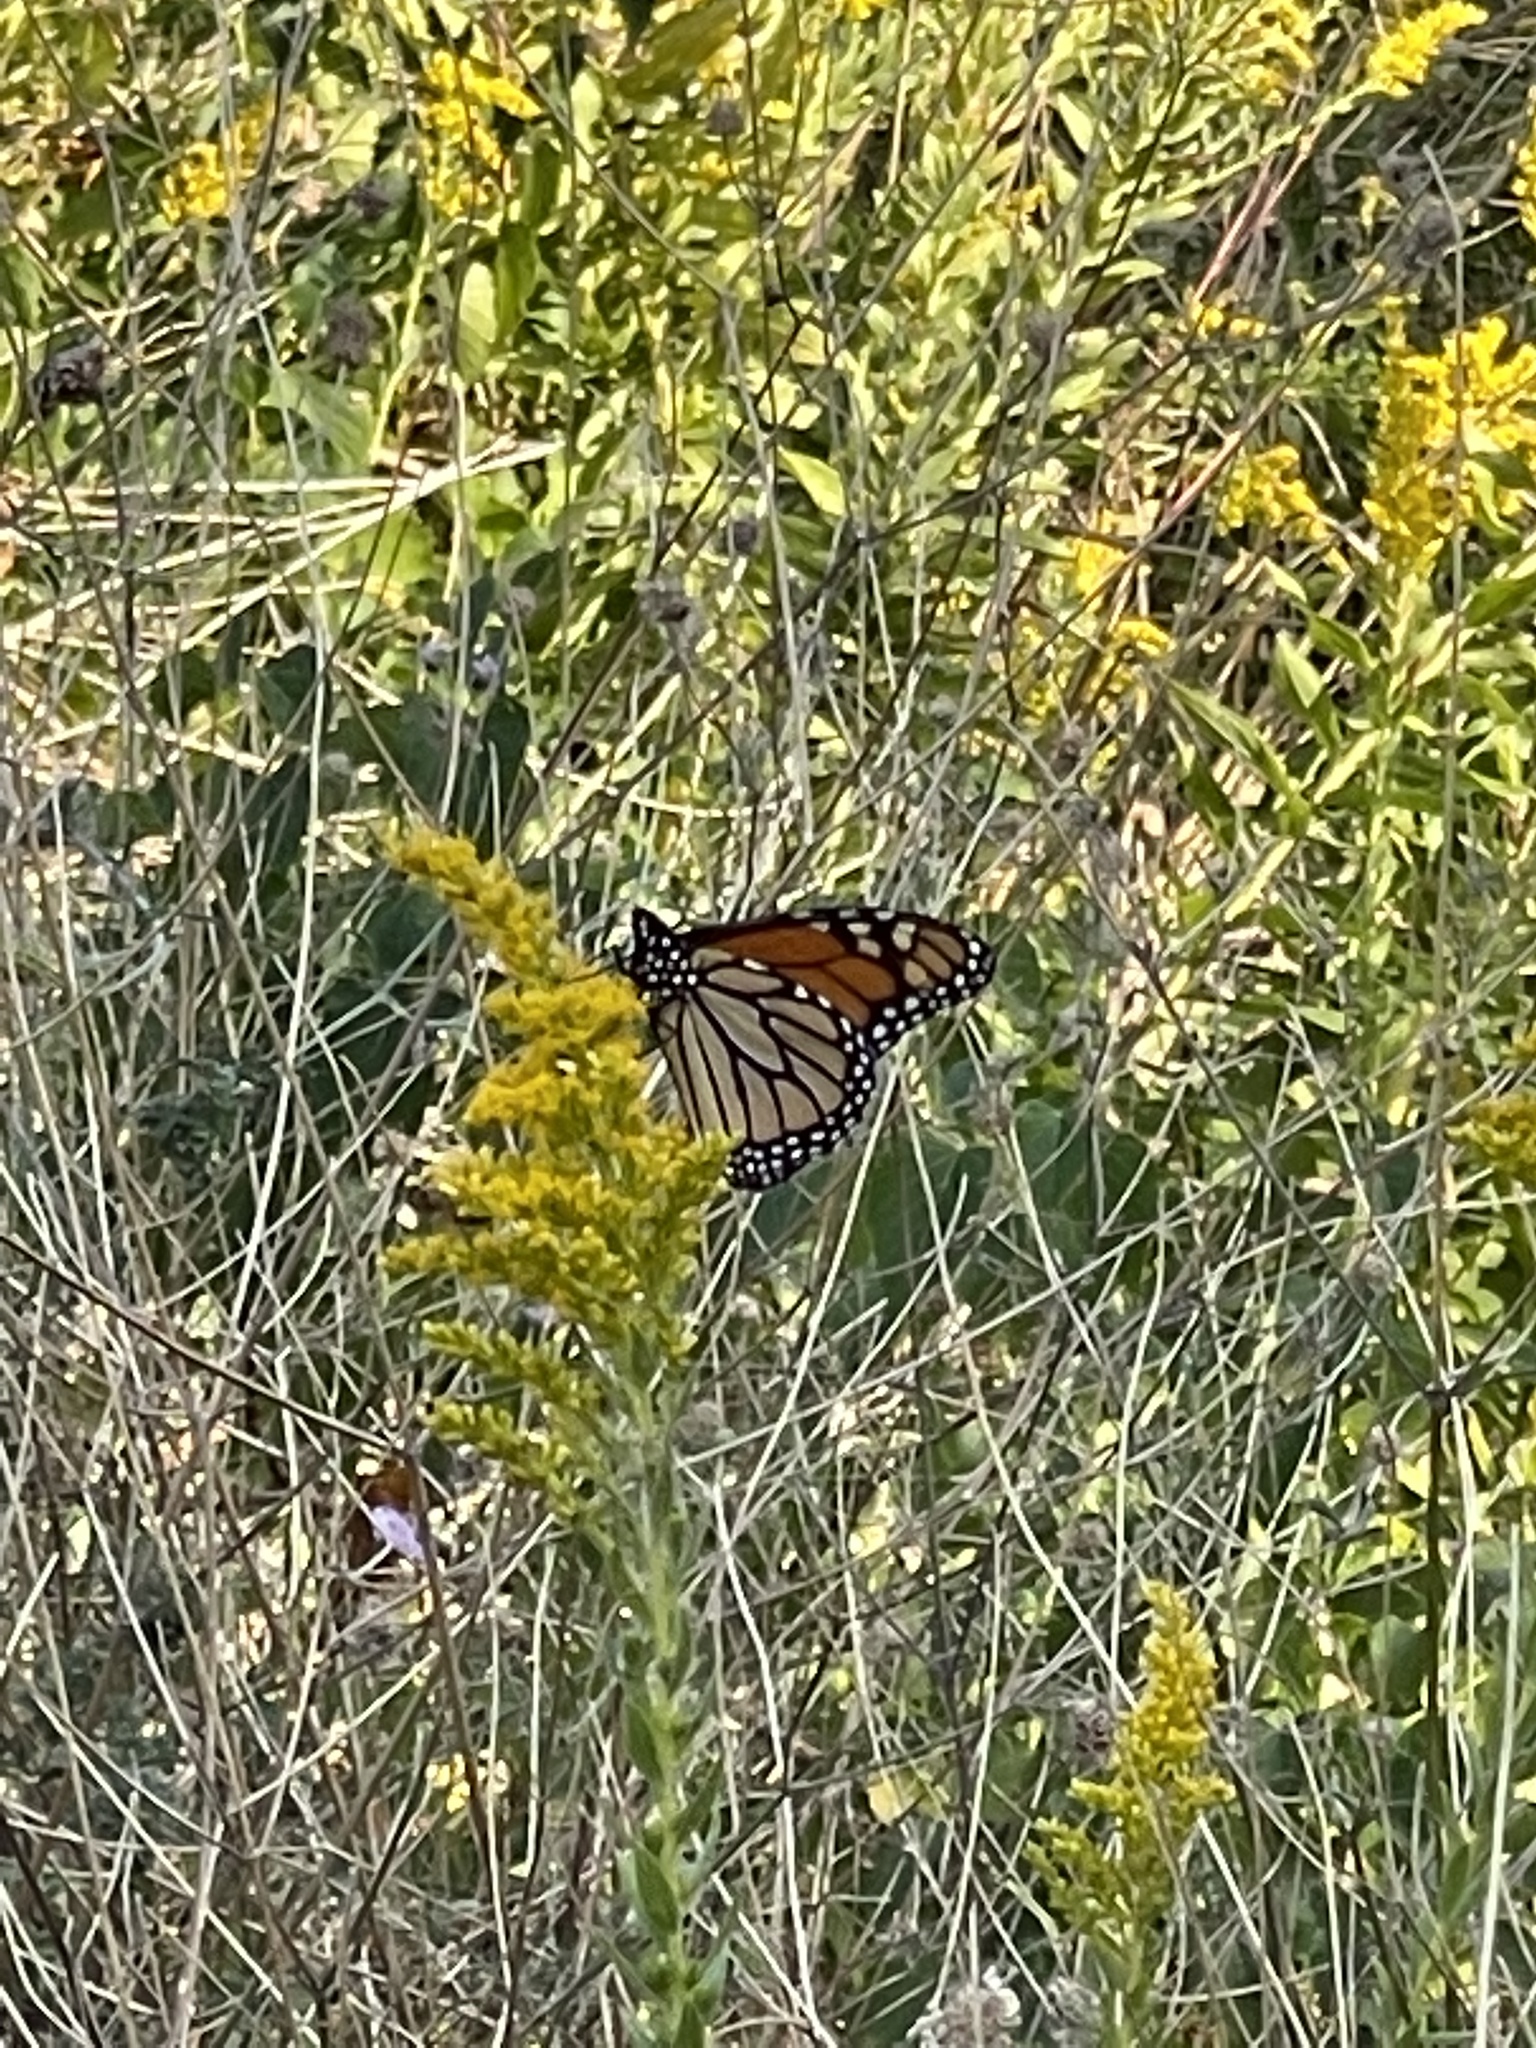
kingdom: Animalia
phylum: Arthropoda
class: Insecta
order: Lepidoptera
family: Nymphalidae
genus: Danaus
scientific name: Danaus plexippus
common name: Monarch
